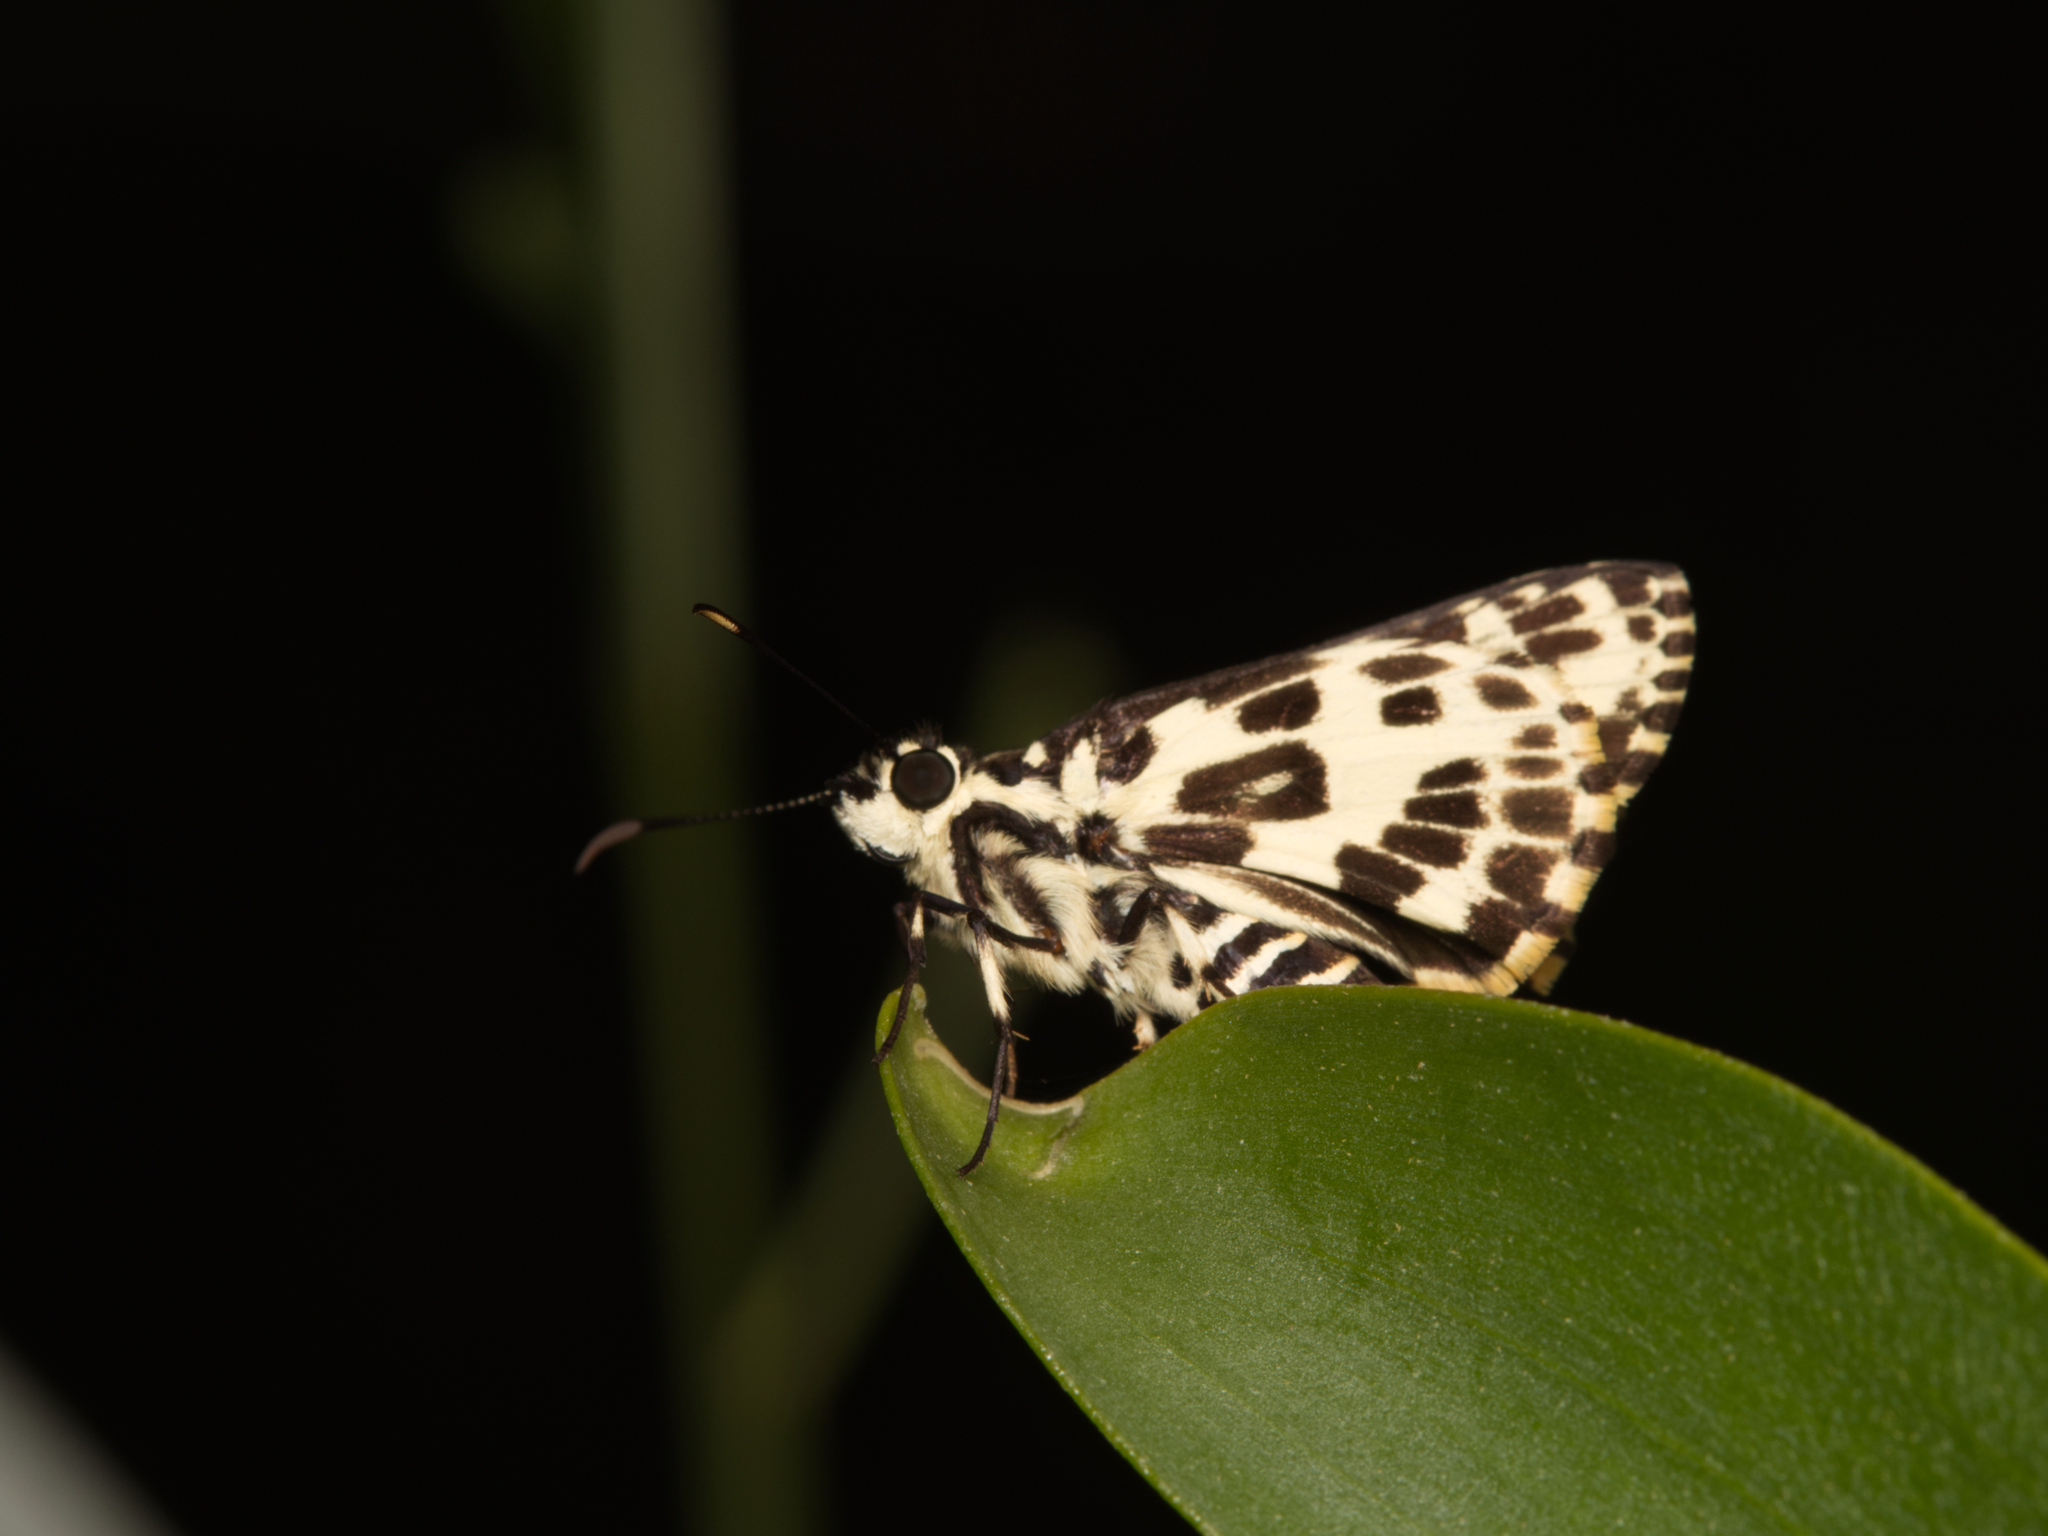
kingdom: Animalia
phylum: Arthropoda
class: Insecta
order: Lepidoptera
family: Hesperiidae
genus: Hesperilla
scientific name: Hesperilla ornata
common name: Spotted sedge-skipper
